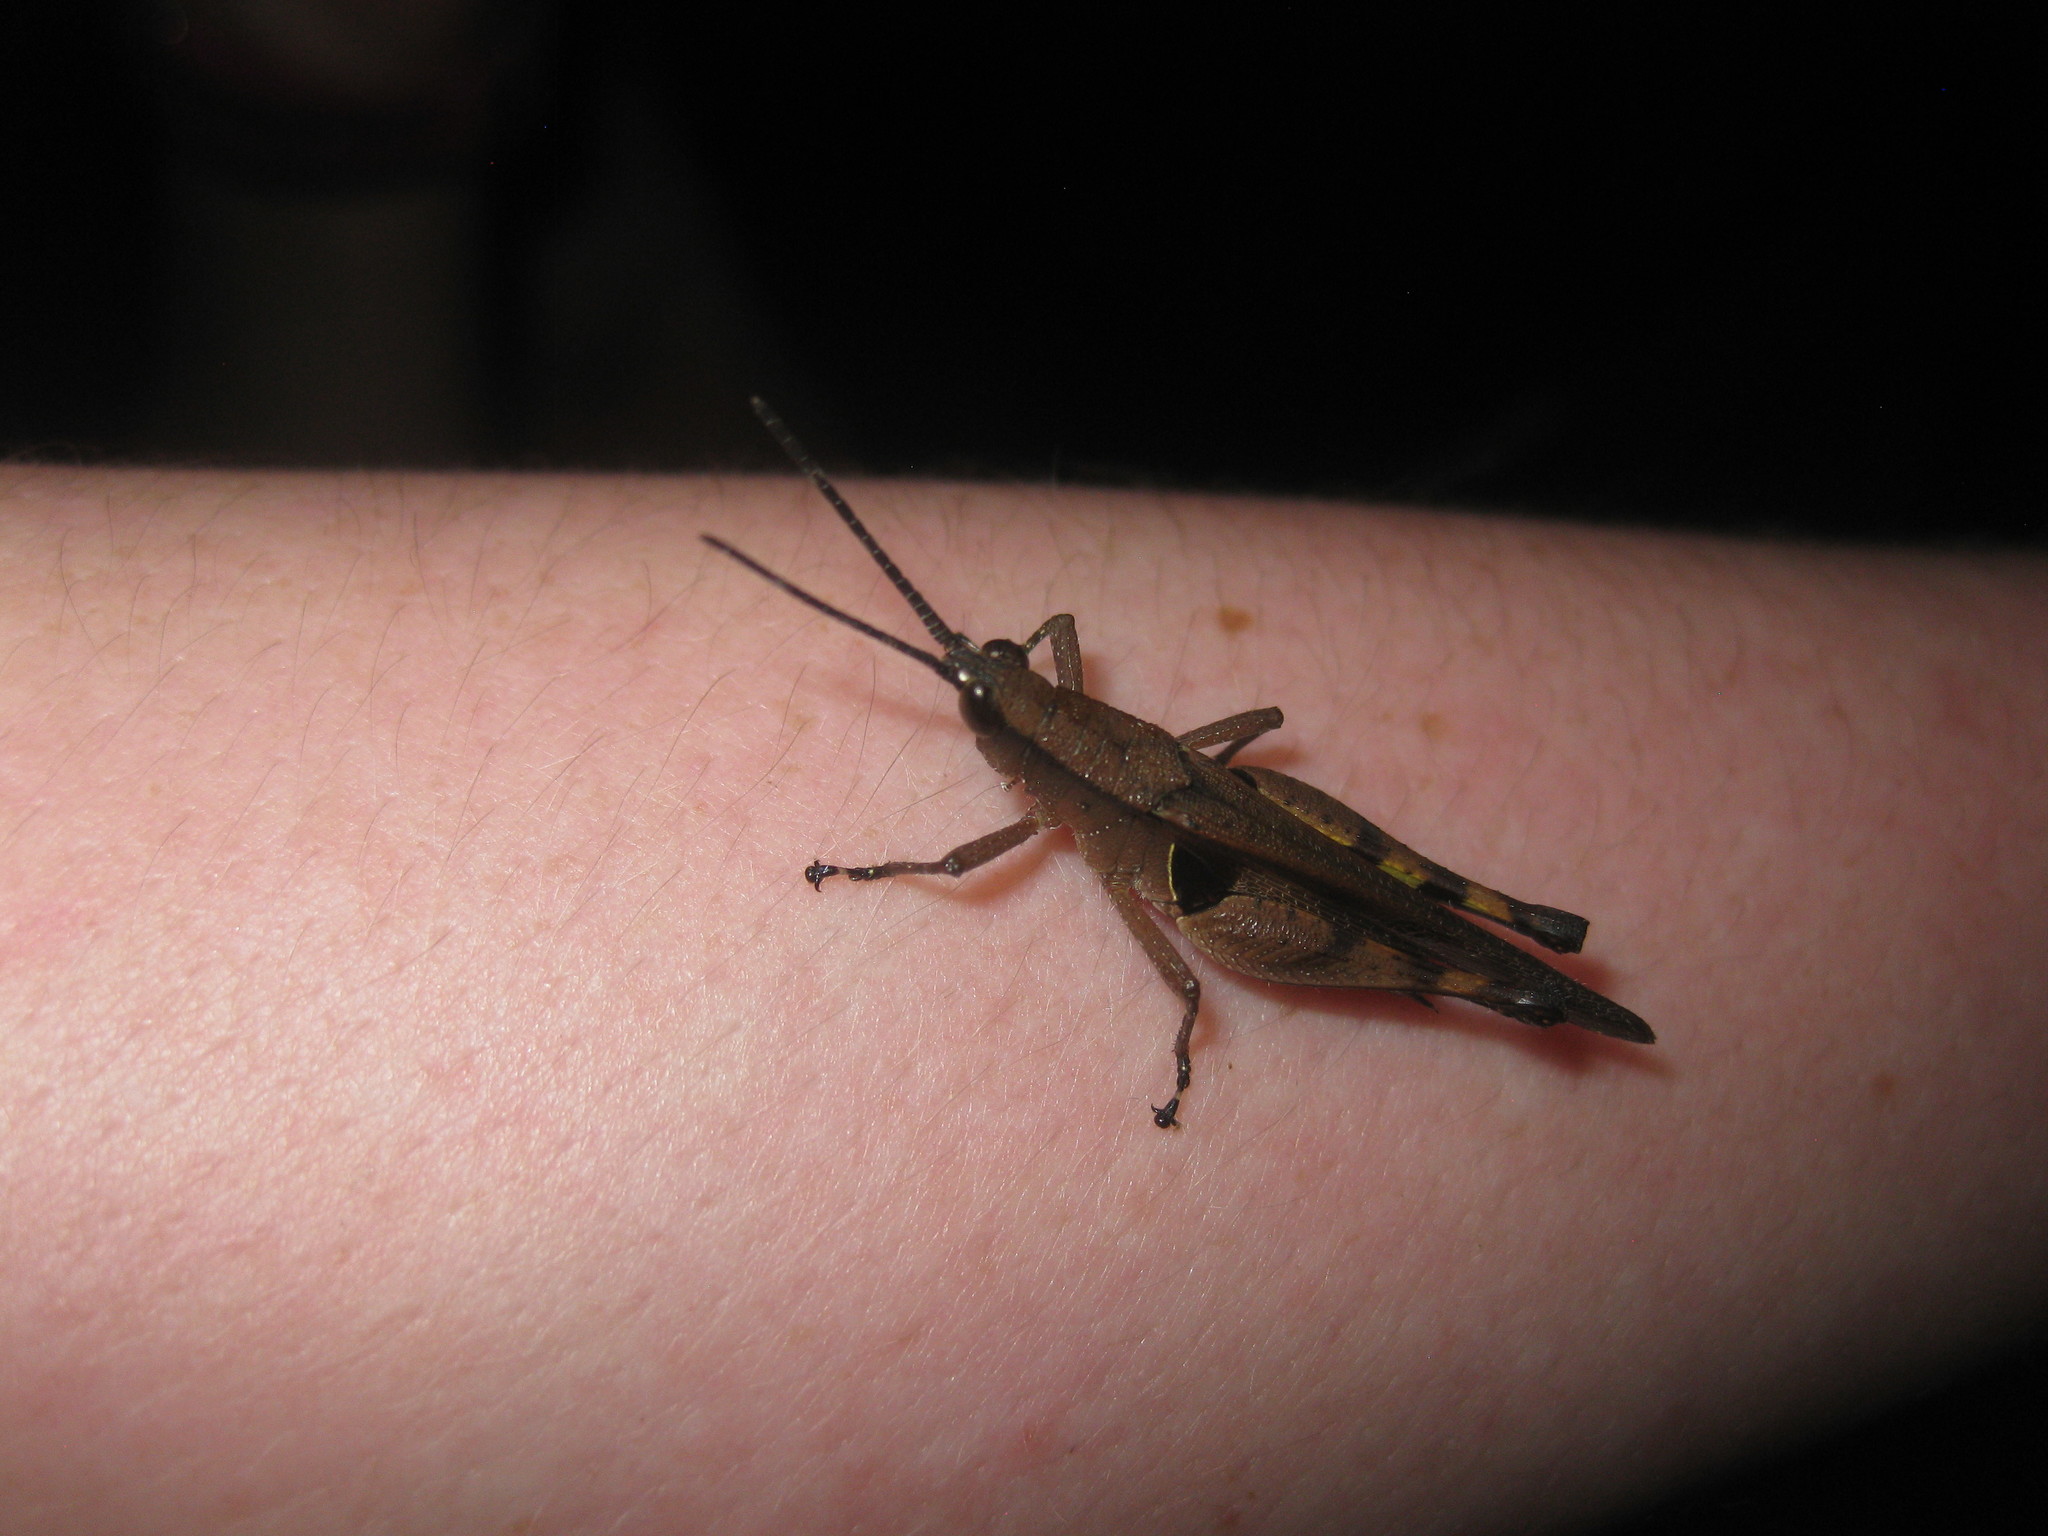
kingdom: Animalia
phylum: Arthropoda
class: Insecta
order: Orthoptera
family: Acrididae
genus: Xiphiola
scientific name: Xiphiola cyanoptera
